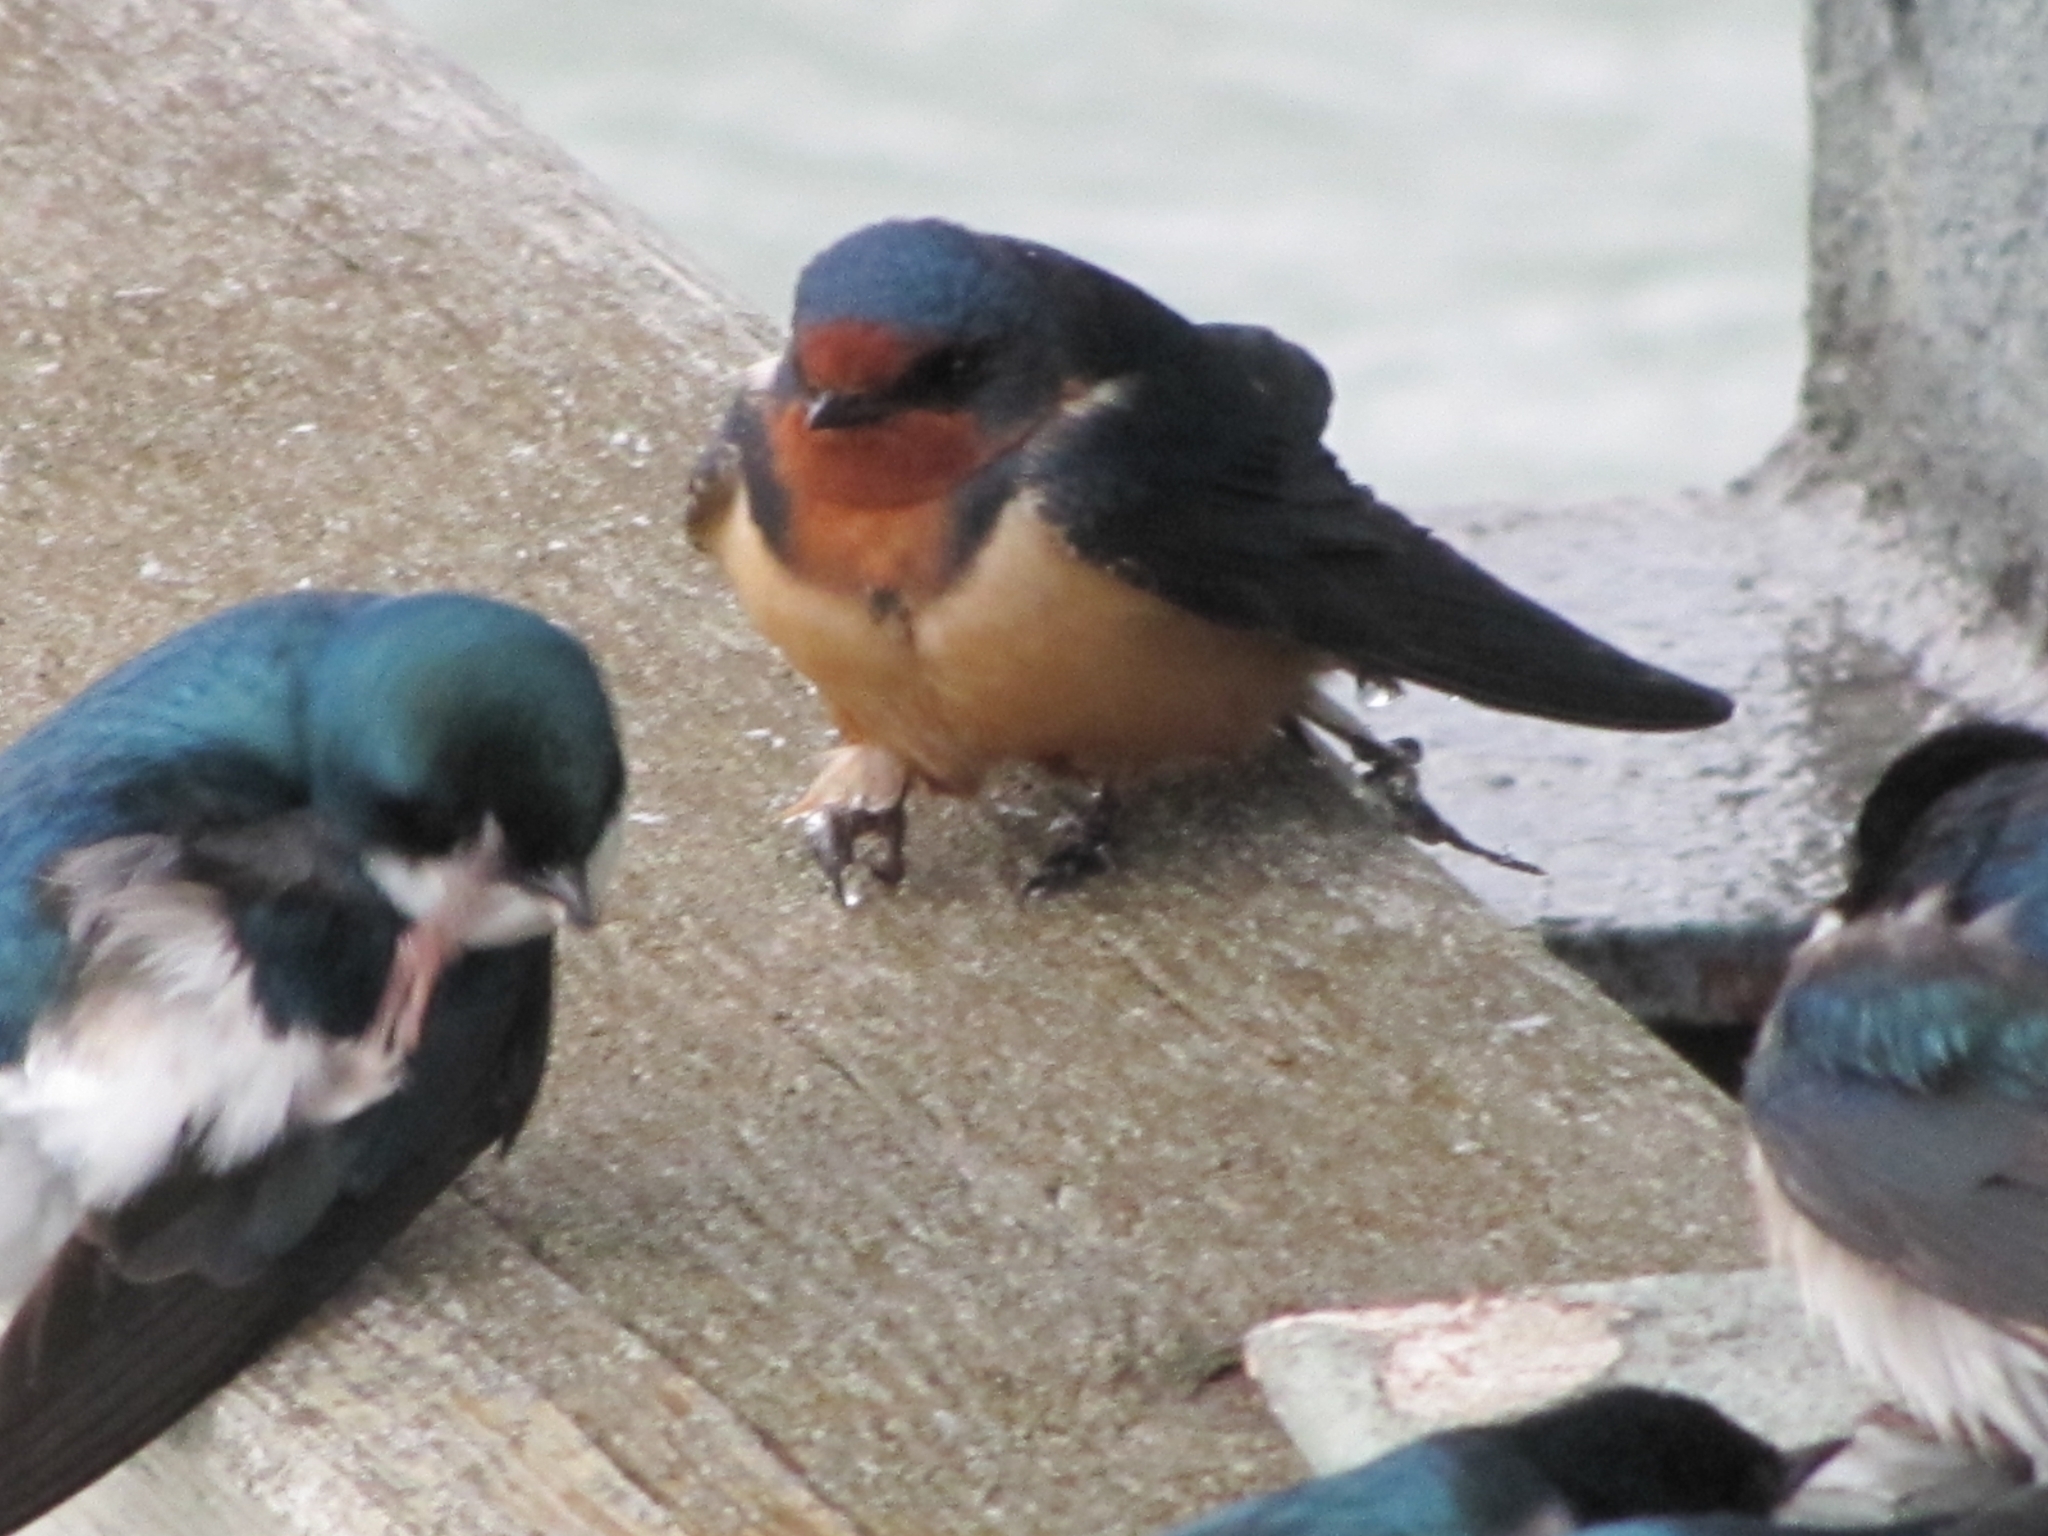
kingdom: Animalia
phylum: Chordata
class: Aves
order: Passeriformes
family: Hirundinidae
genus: Hirundo
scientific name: Hirundo rustica
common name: Barn swallow
